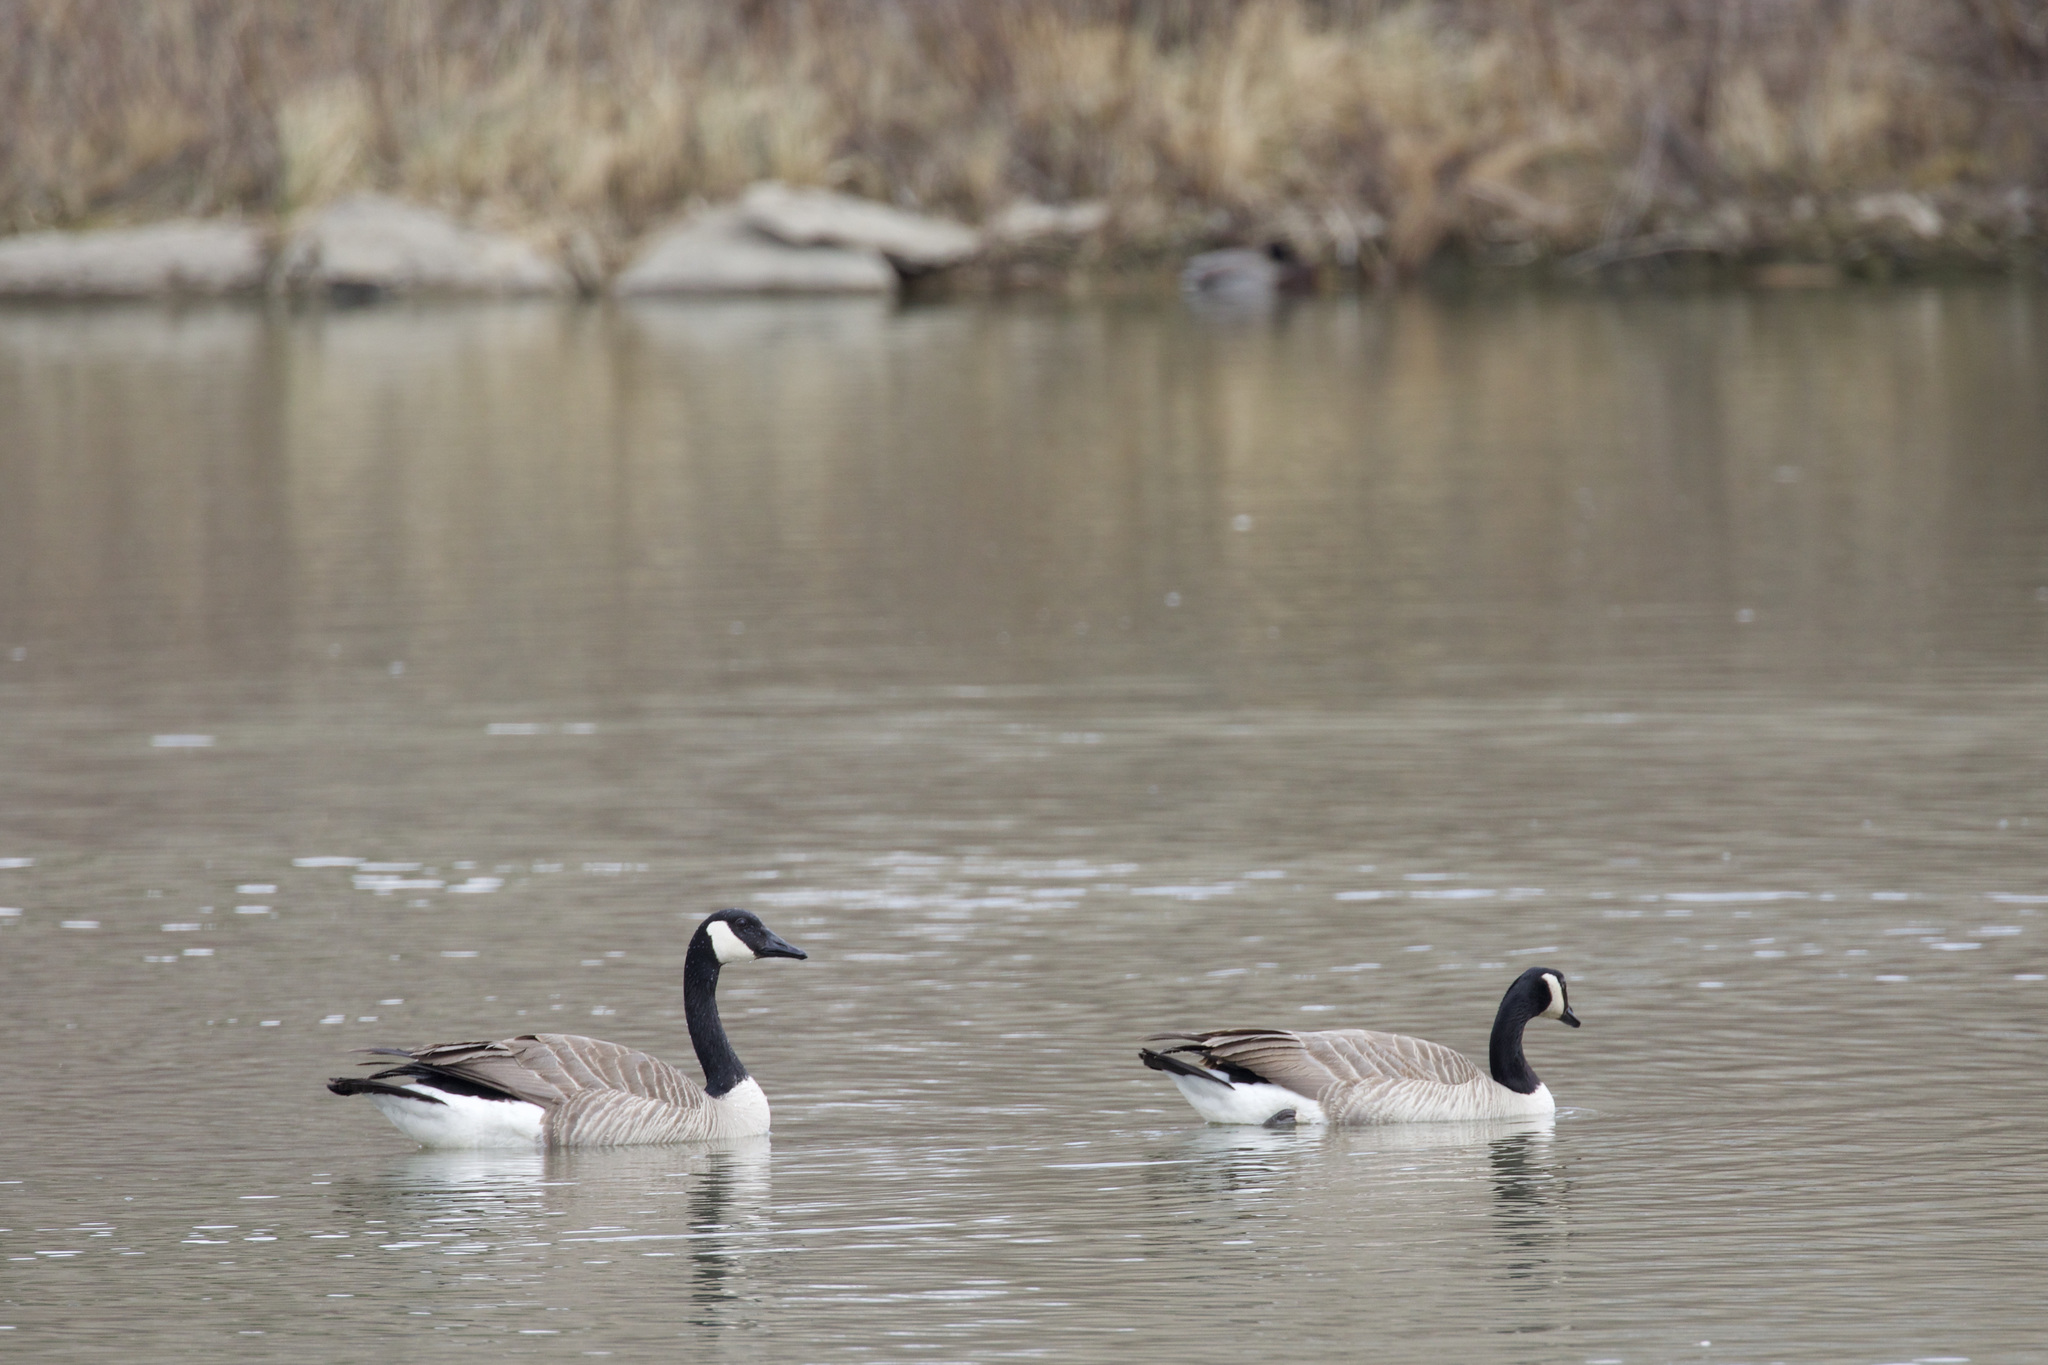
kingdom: Animalia
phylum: Chordata
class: Aves
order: Anseriformes
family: Anatidae
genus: Branta
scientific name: Branta canadensis
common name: Canada goose
